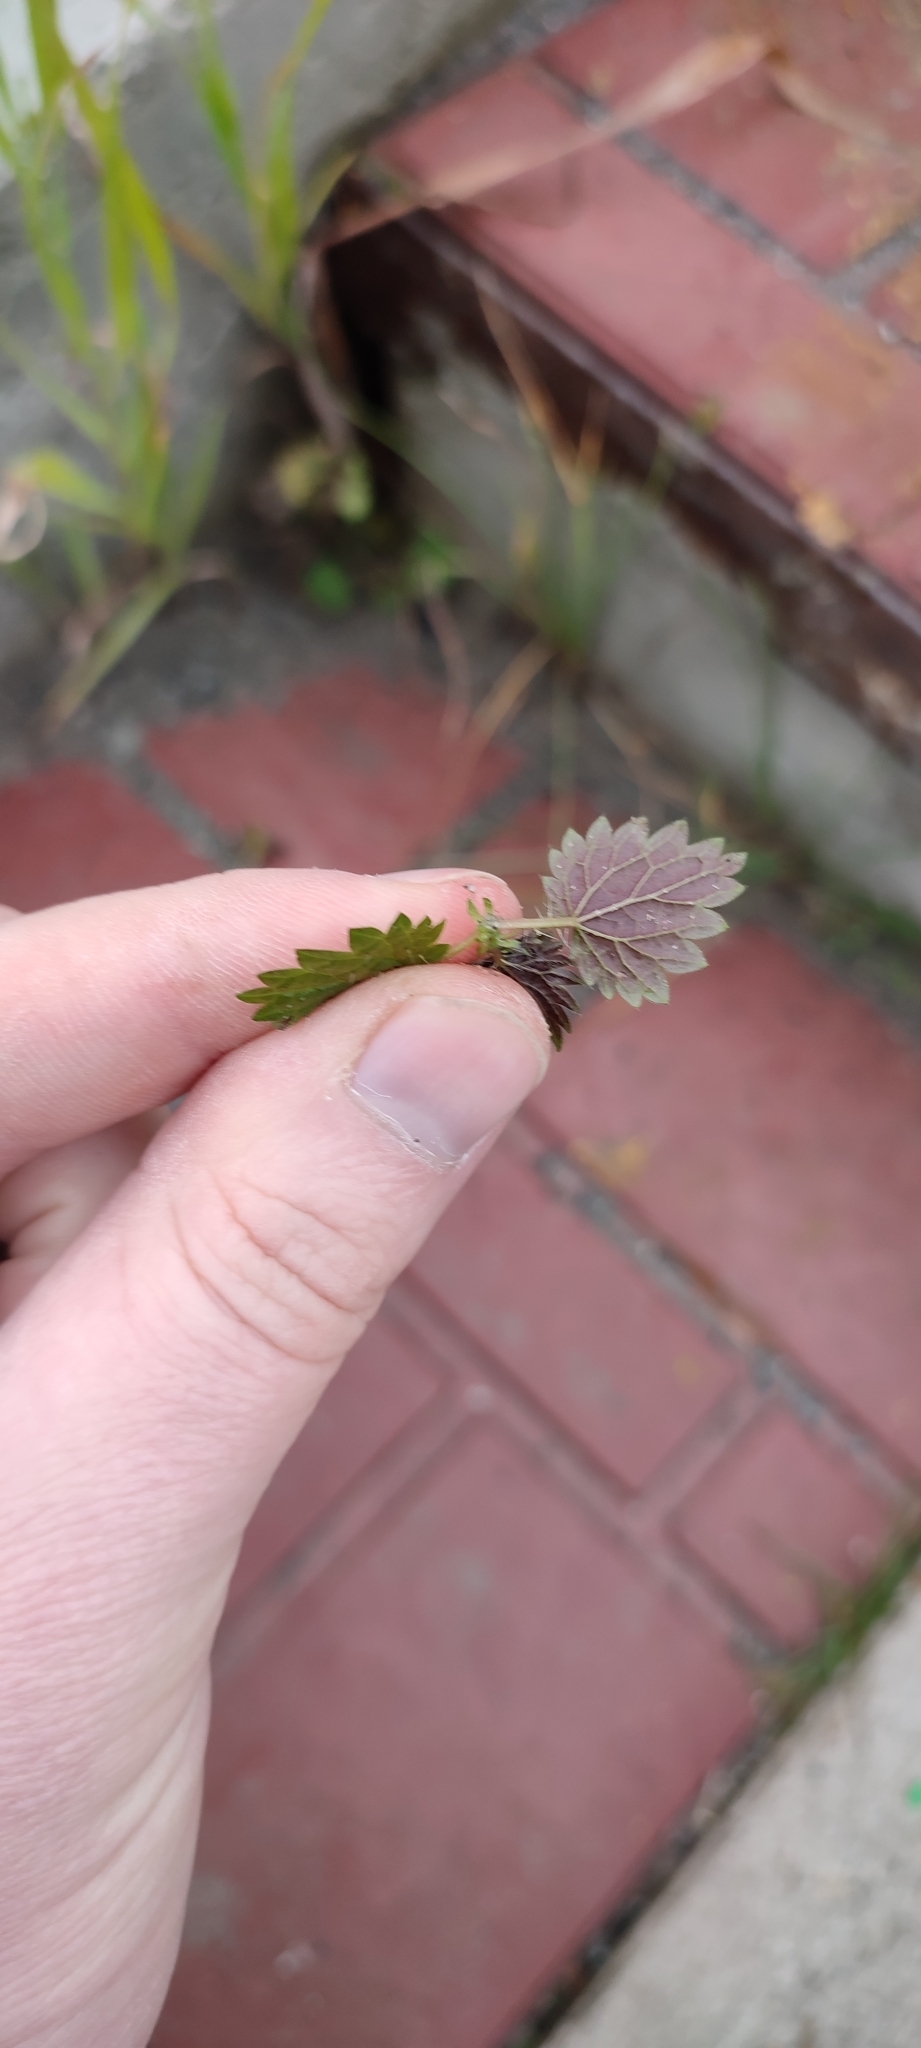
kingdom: Plantae
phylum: Tracheophyta
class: Magnoliopsida
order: Rosales
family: Urticaceae
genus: Urtica
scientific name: Urtica urens
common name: Dwarf nettle
